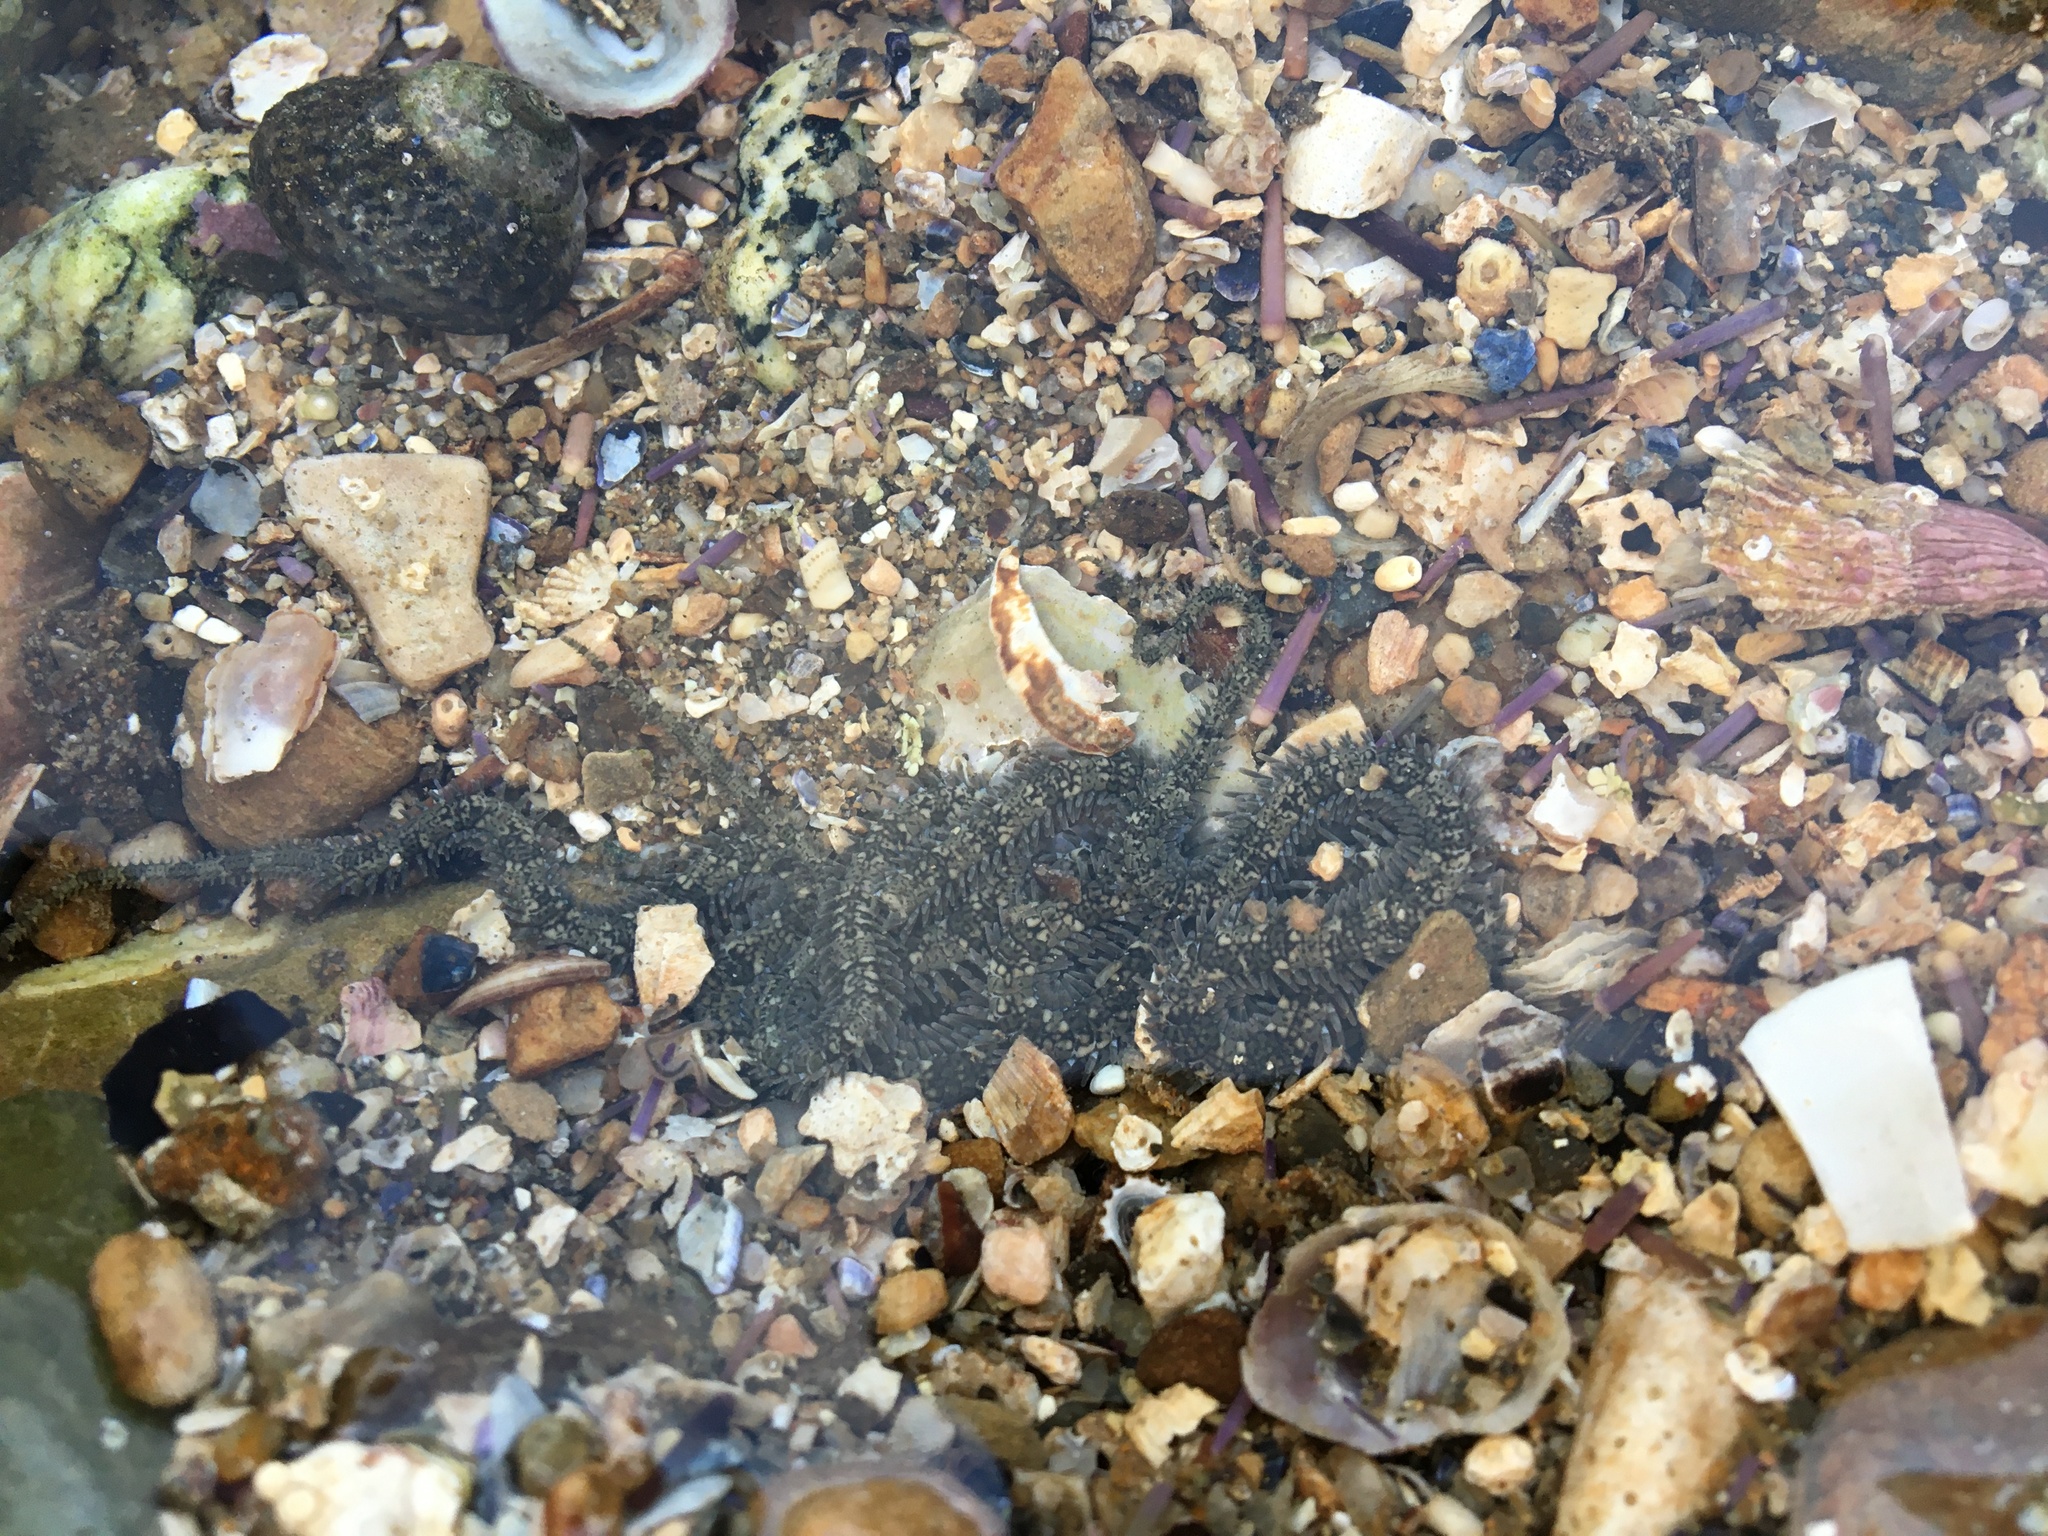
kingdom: Animalia
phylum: Echinodermata
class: Ophiuroidea
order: Amphilepidida
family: Ophionereididae
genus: Ophionereis
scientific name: Ophionereis annulata
